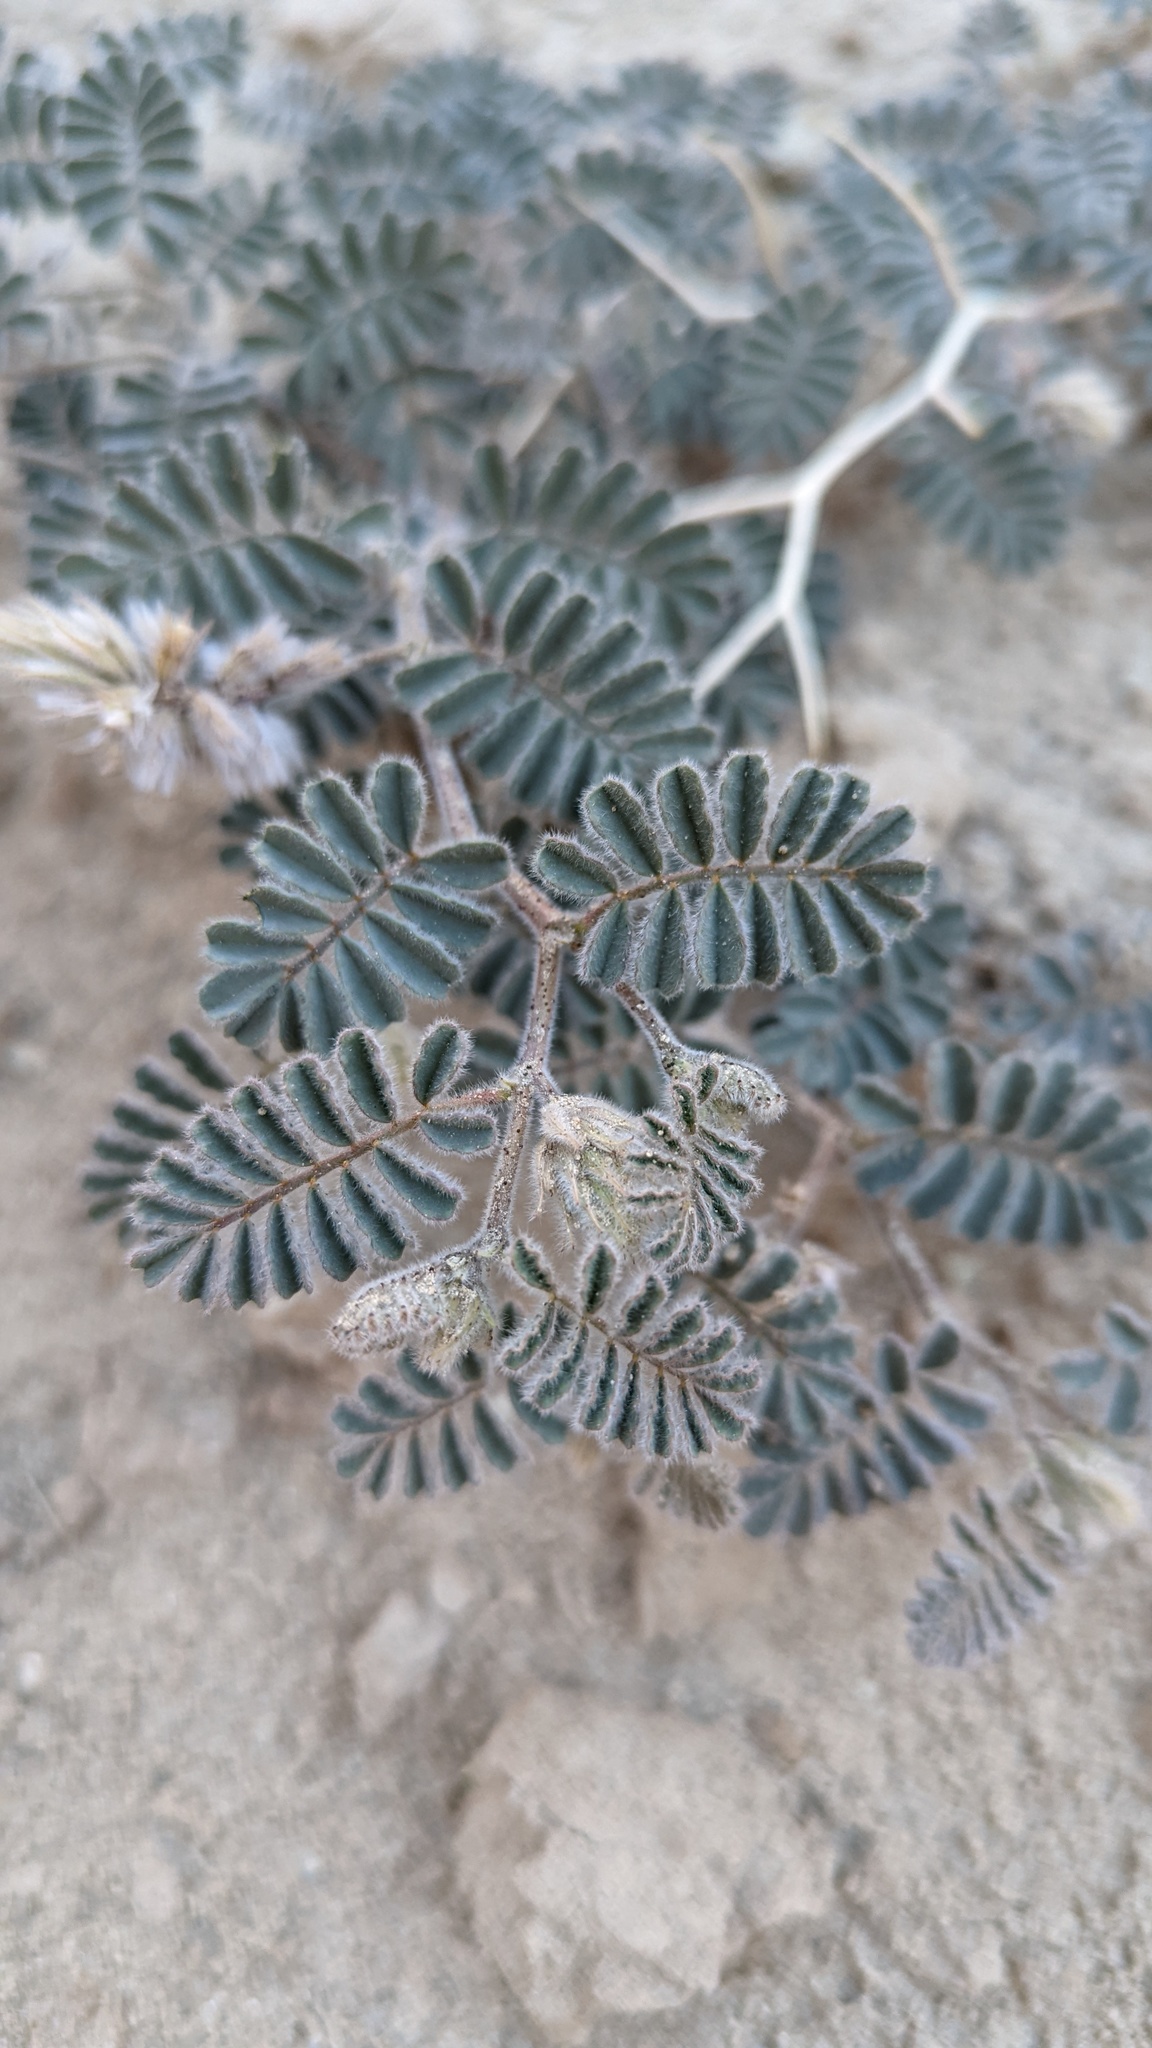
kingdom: Plantae
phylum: Tracheophyta
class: Magnoliopsida
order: Fabales
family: Fabaceae
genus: Dalea
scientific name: Dalea mollissima
